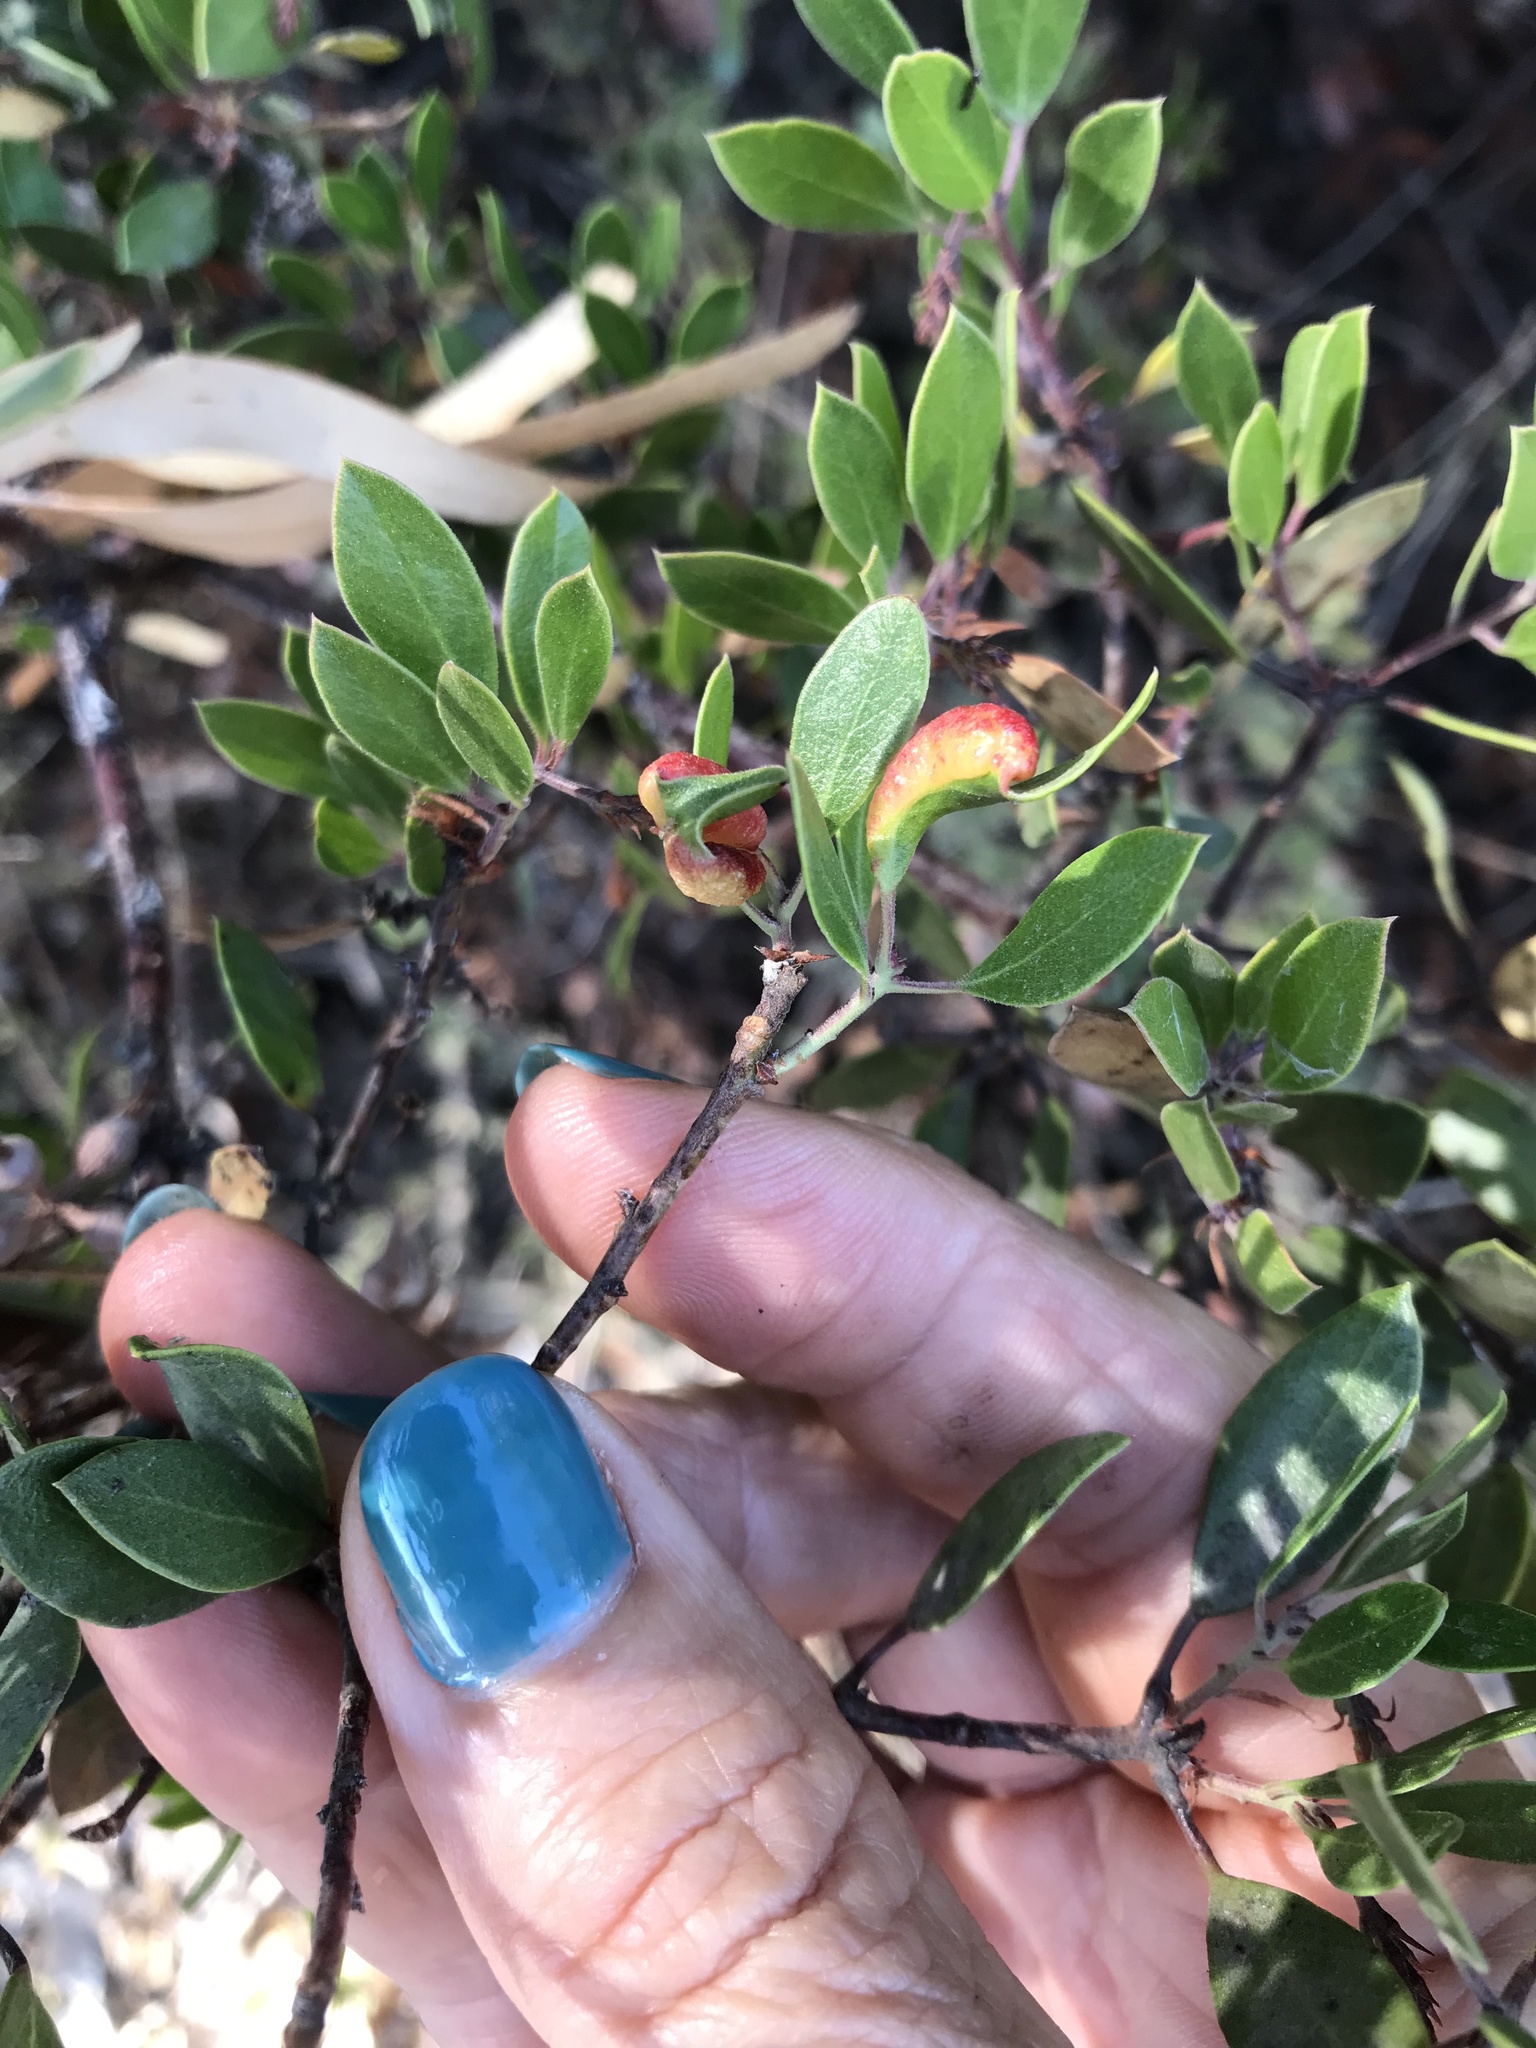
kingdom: Animalia
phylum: Arthropoda
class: Insecta
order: Hemiptera
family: Aphididae
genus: Tamalia
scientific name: Tamalia coweni
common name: Manzanita leafgall aphid
